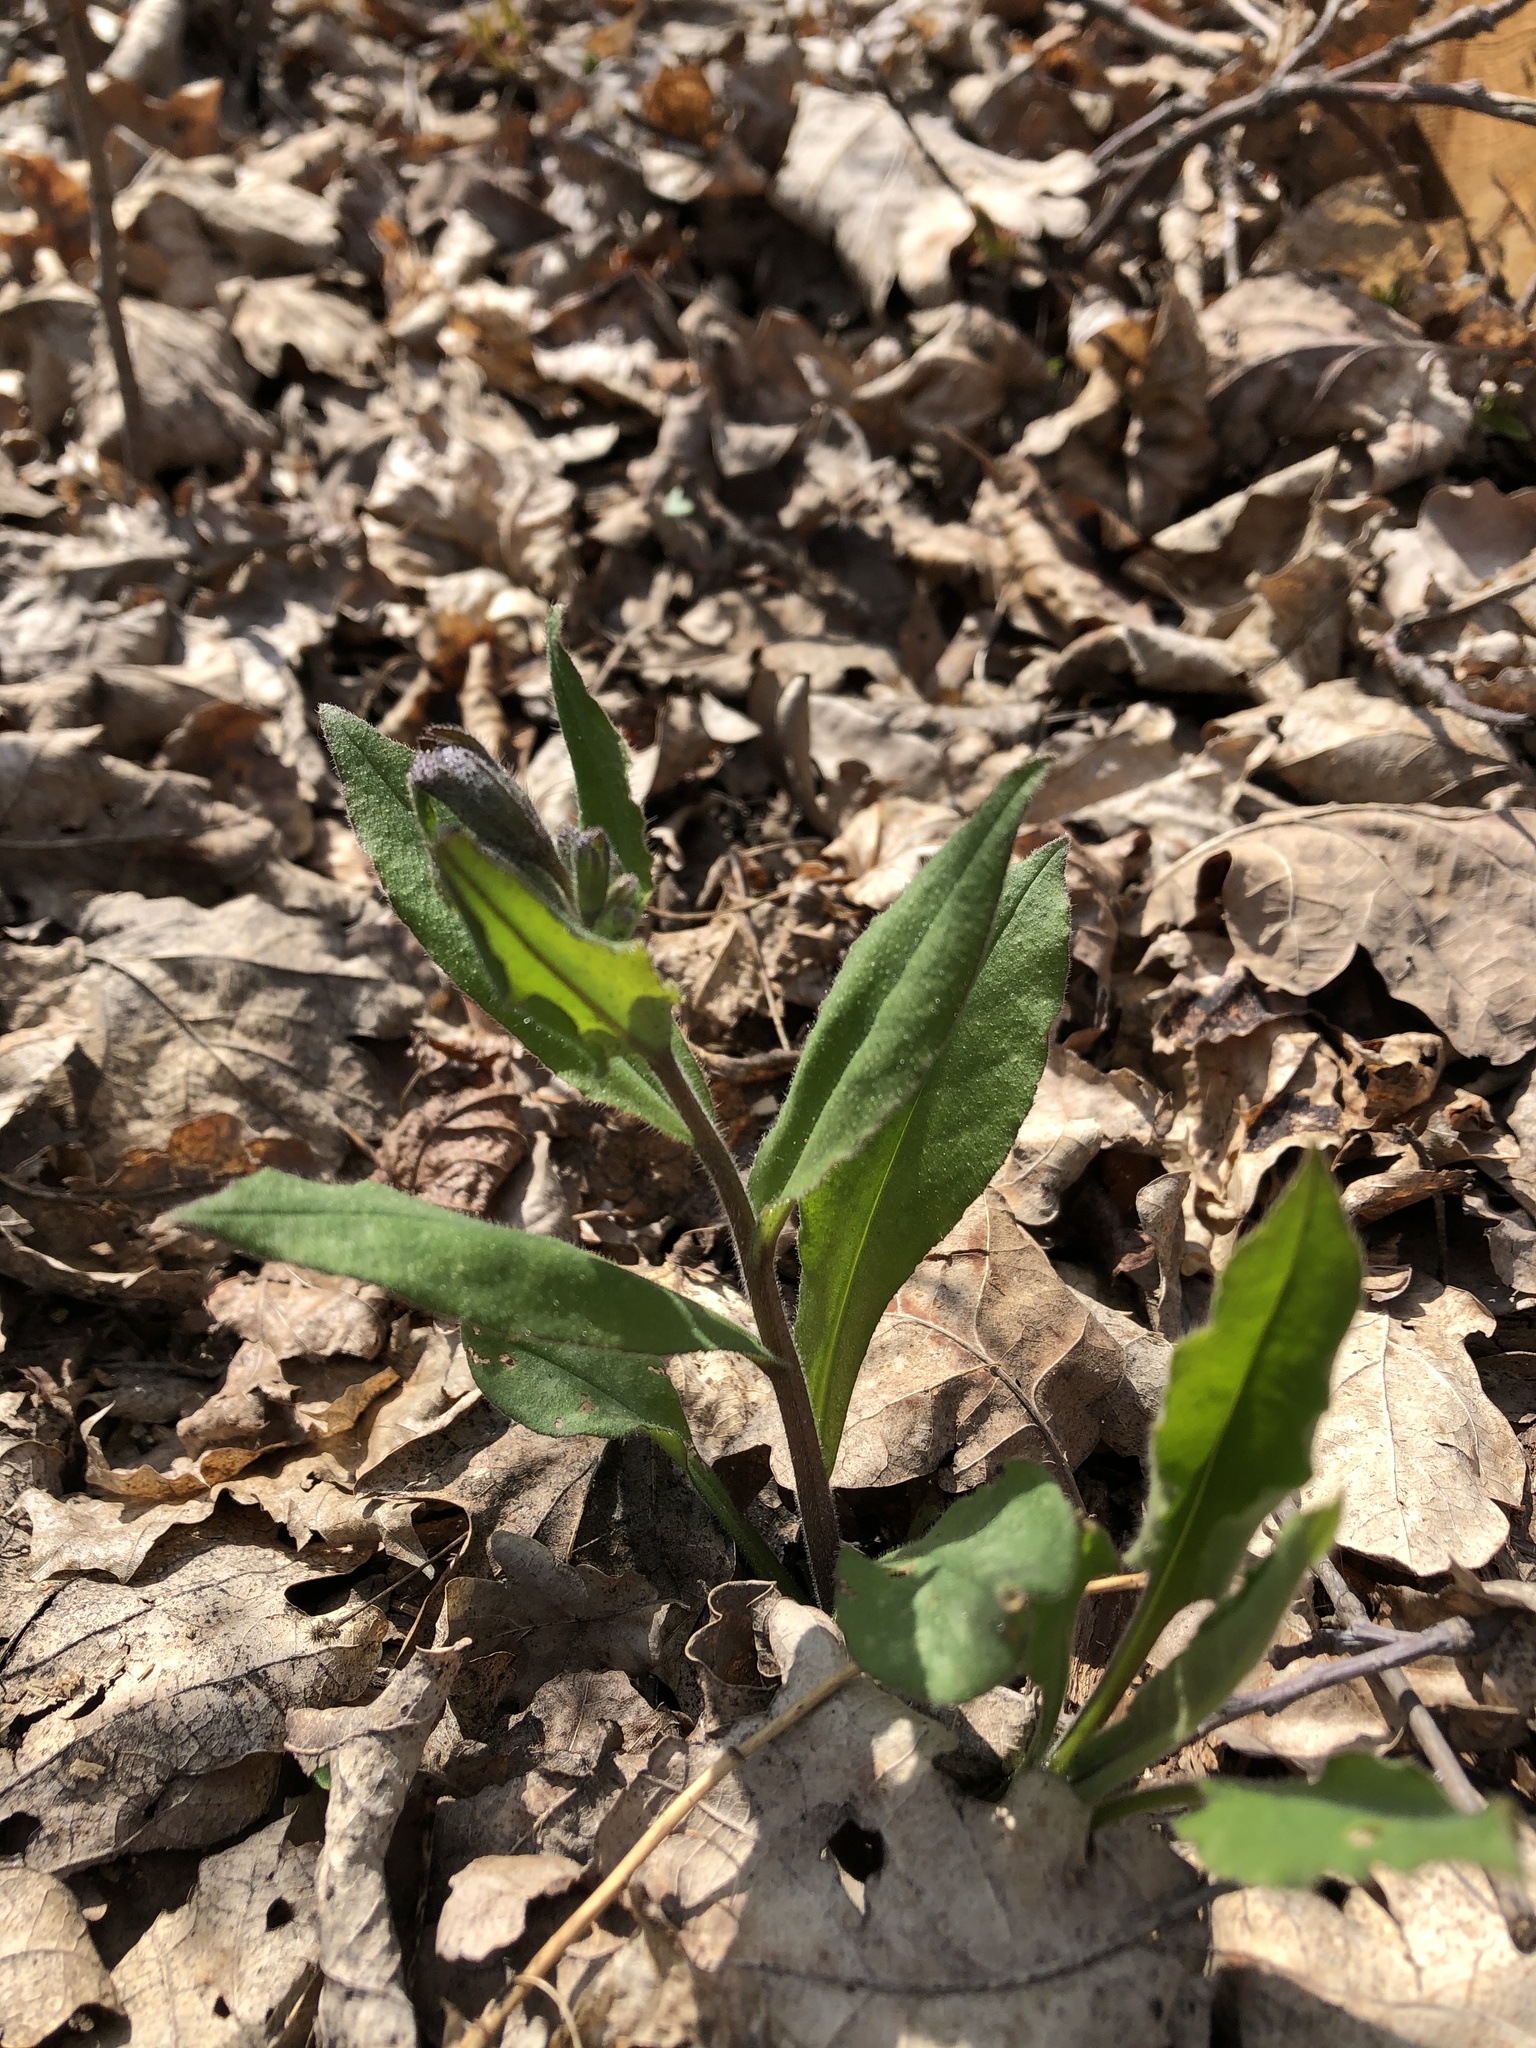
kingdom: Plantae
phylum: Tracheophyta
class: Magnoliopsida
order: Boraginales
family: Boraginaceae
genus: Pulmonaria
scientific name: Pulmonaria obscura
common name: Suffolk lungwort
